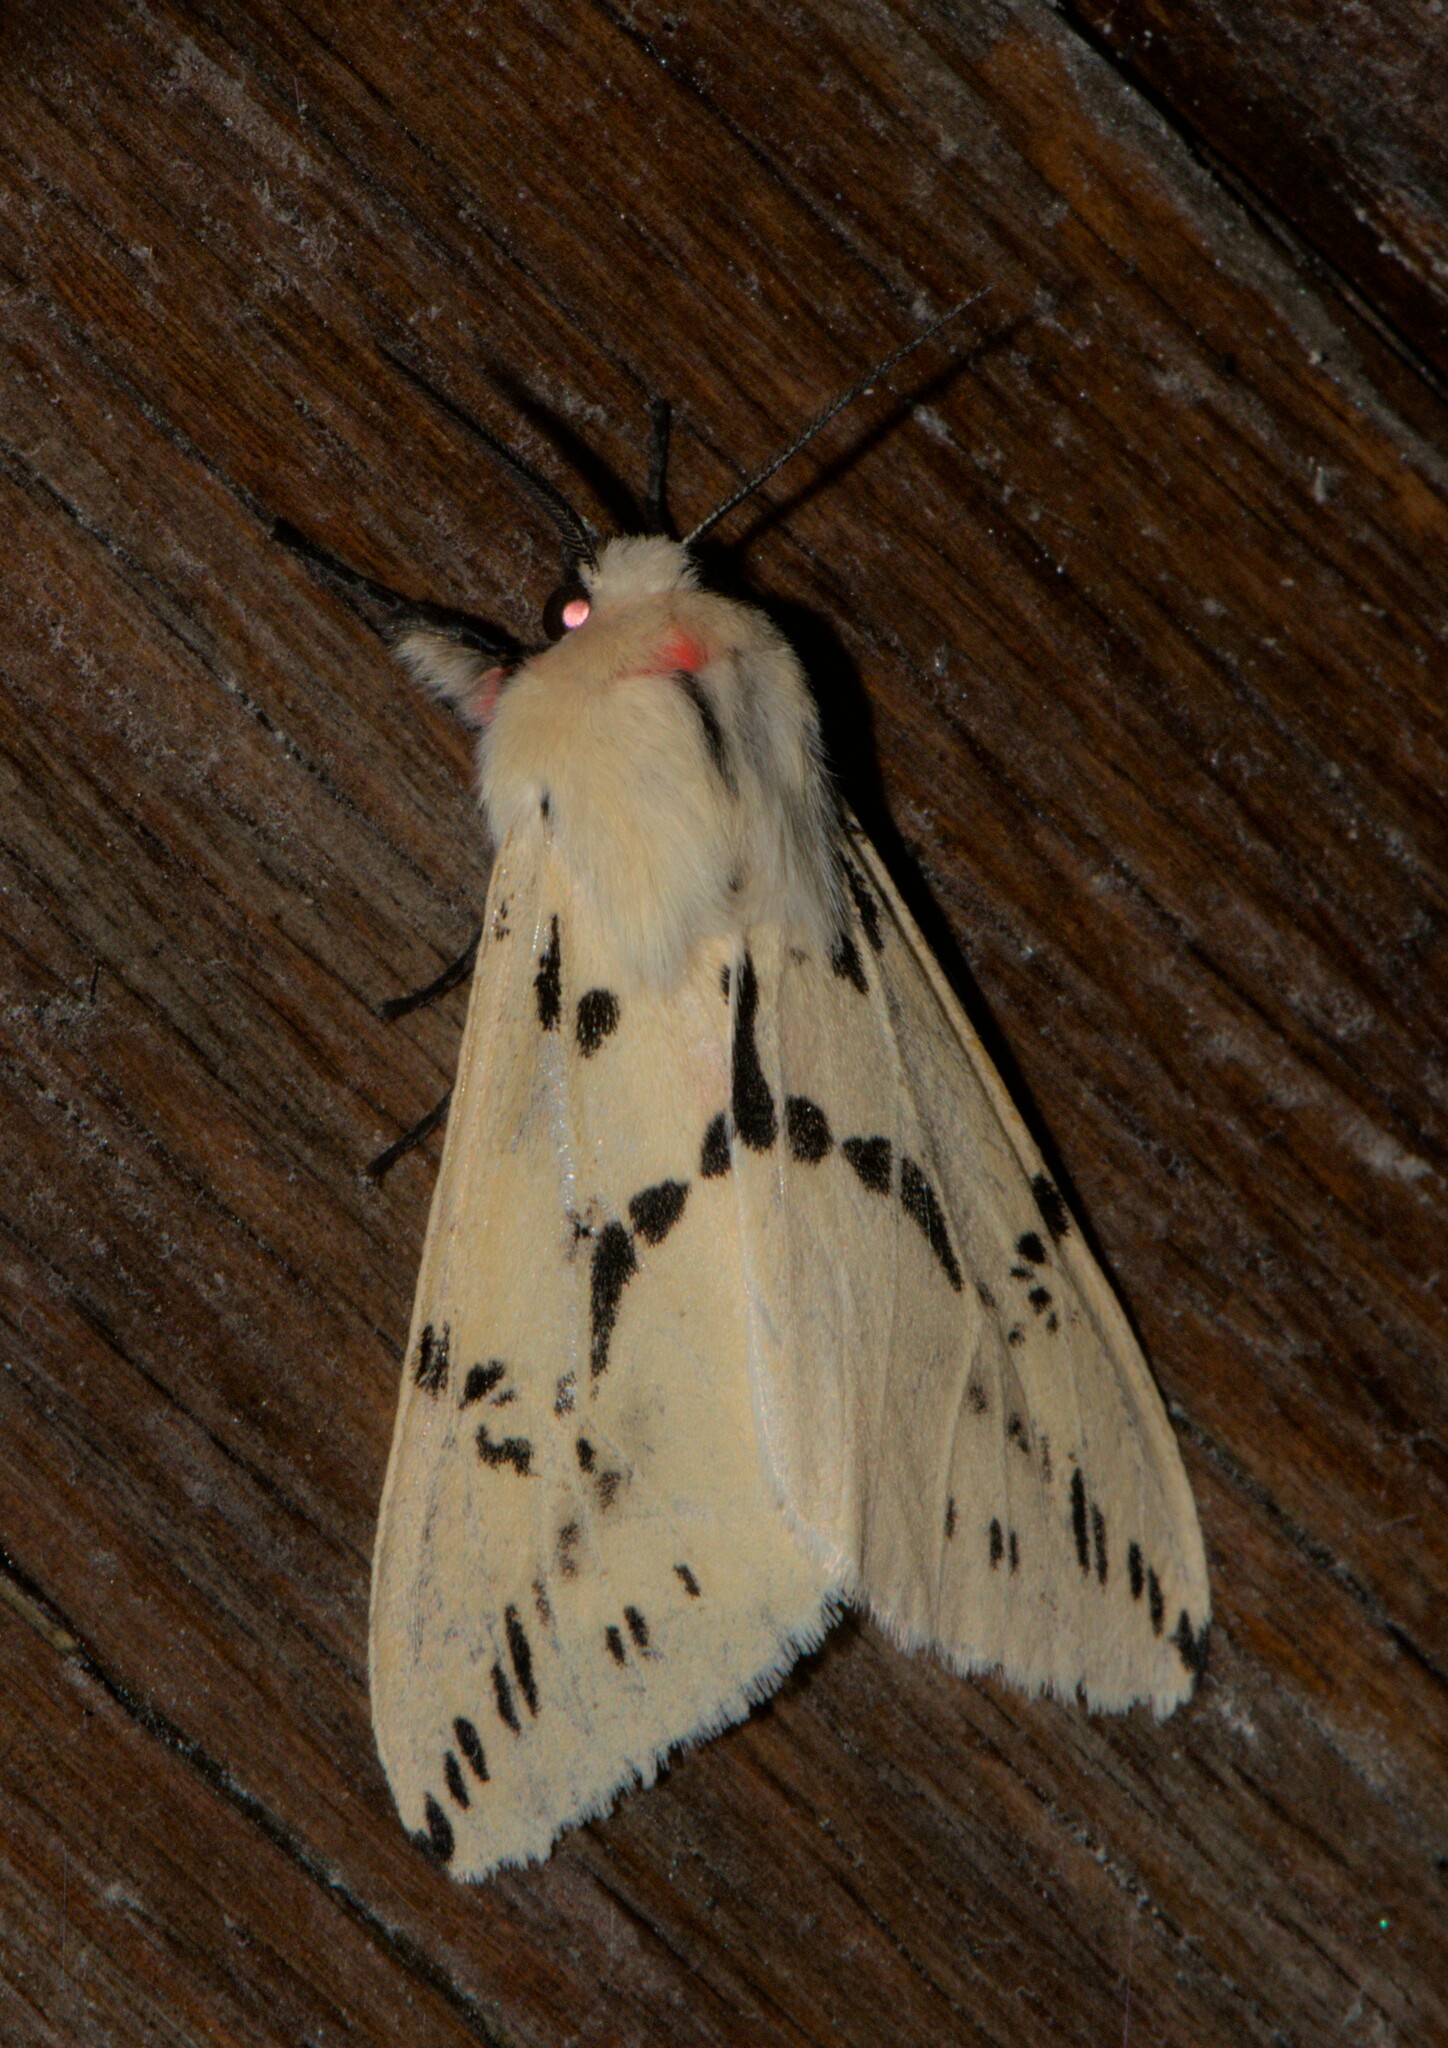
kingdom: Animalia
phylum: Arthropoda
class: Insecta
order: Lepidoptera
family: Erebidae
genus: Lemyra
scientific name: Lemyra stigmata
